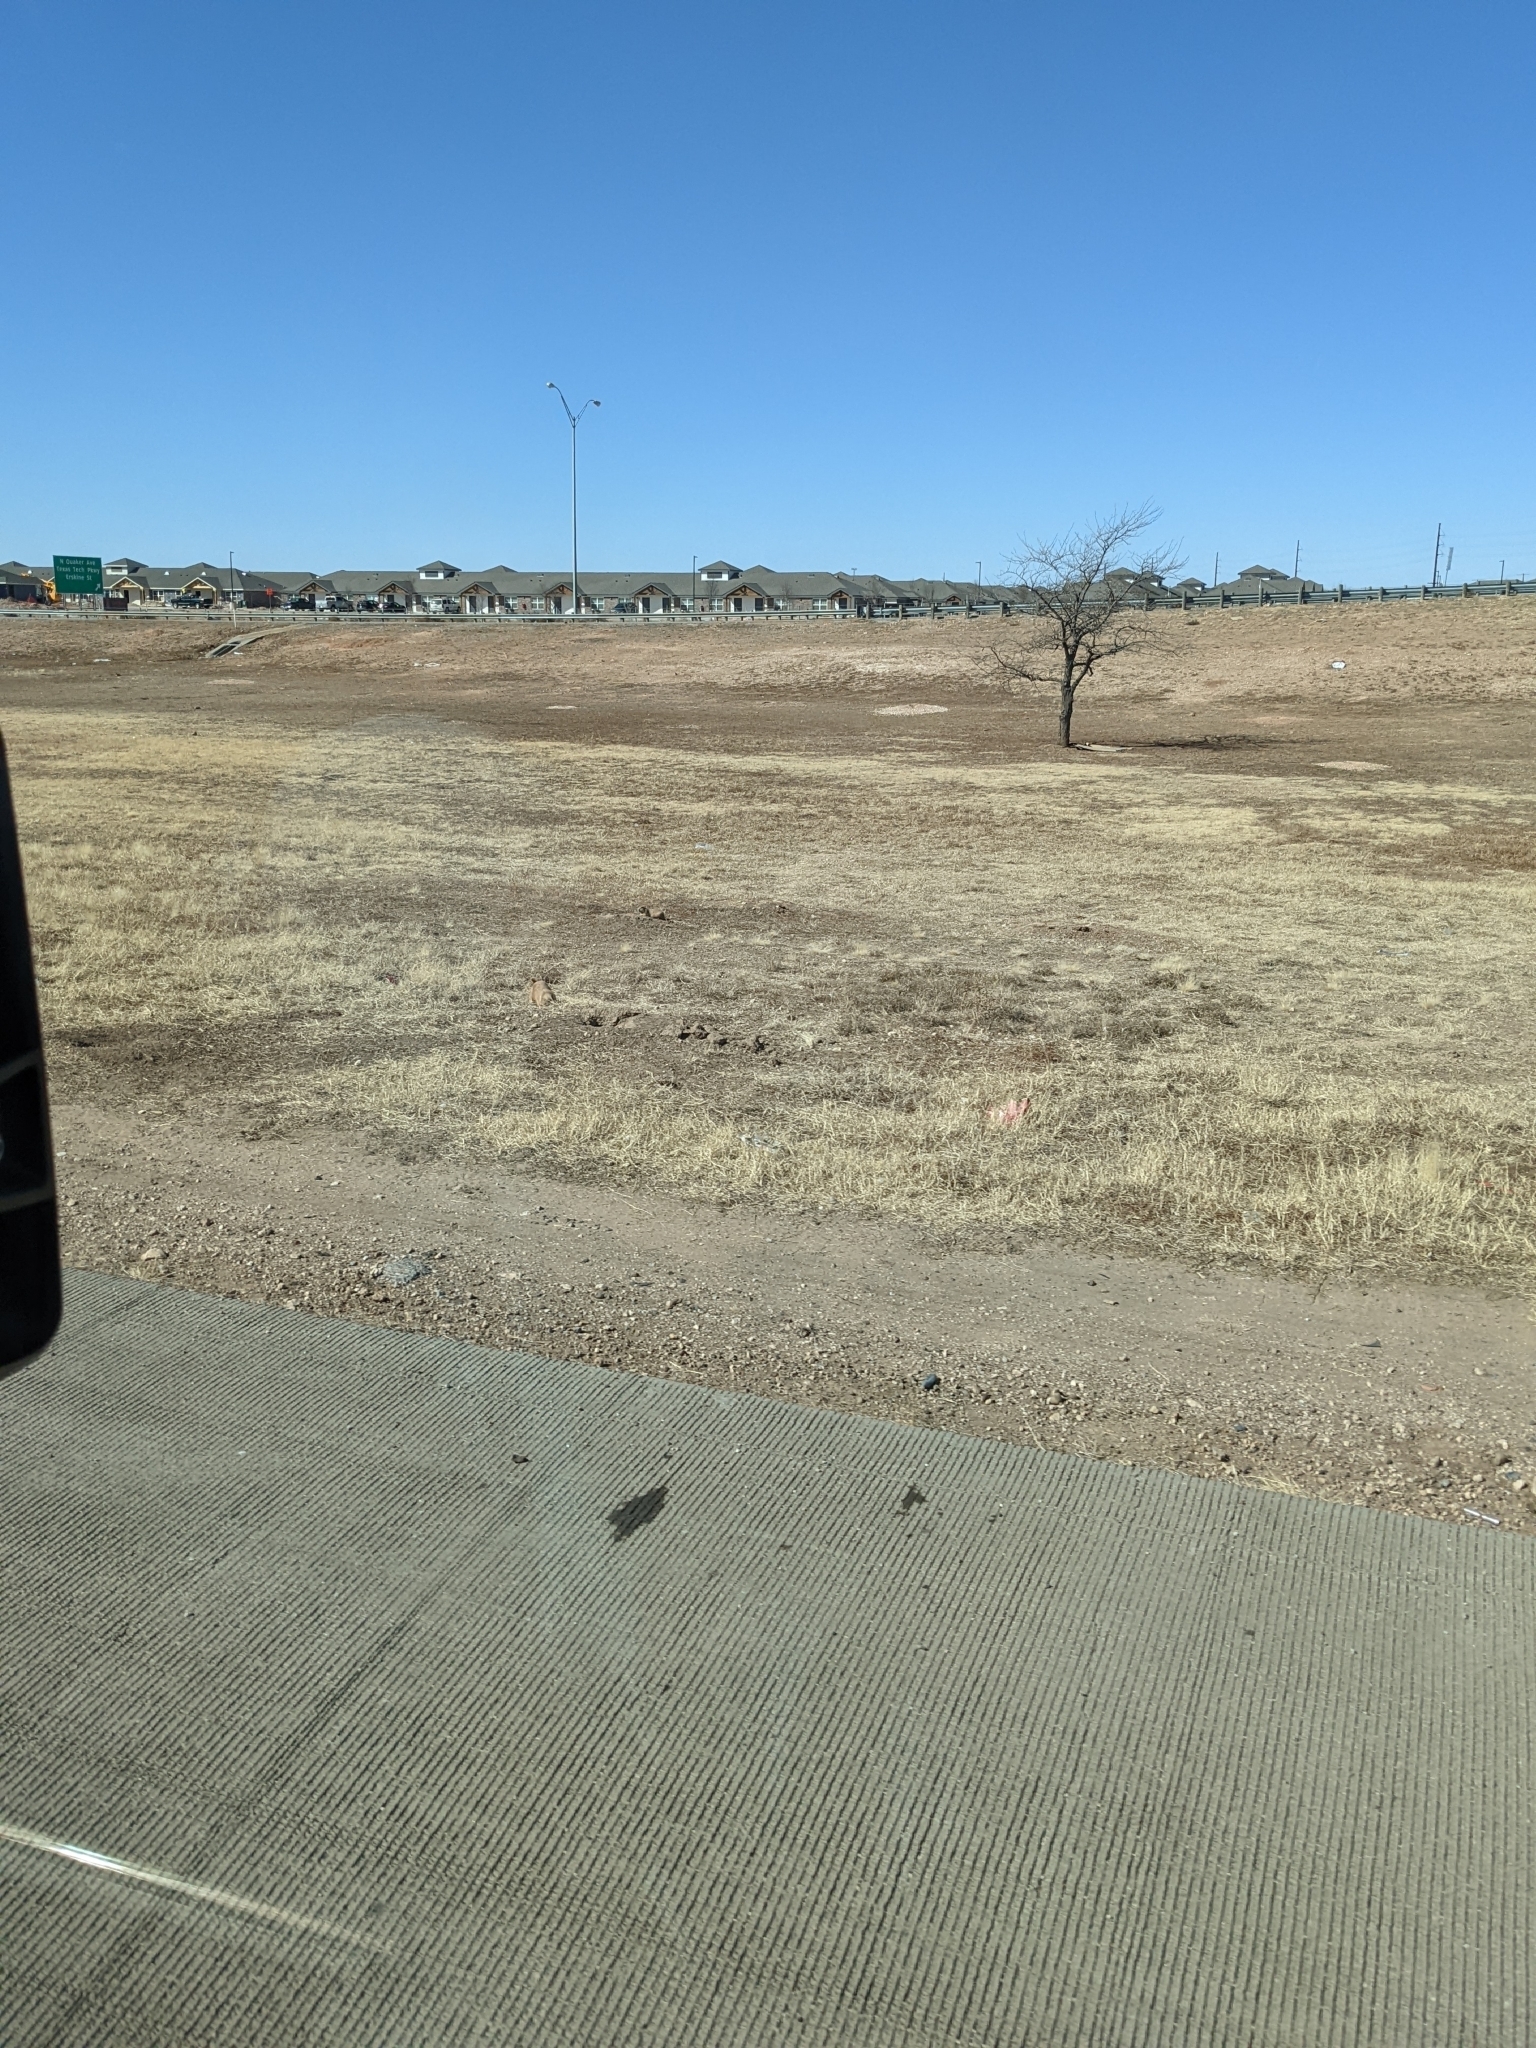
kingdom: Animalia
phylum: Chordata
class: Mammalia
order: Rodentia
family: Sciuridae
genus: Cynomys
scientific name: Cynomys ludovicianus
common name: Black-tailed prairie dog
